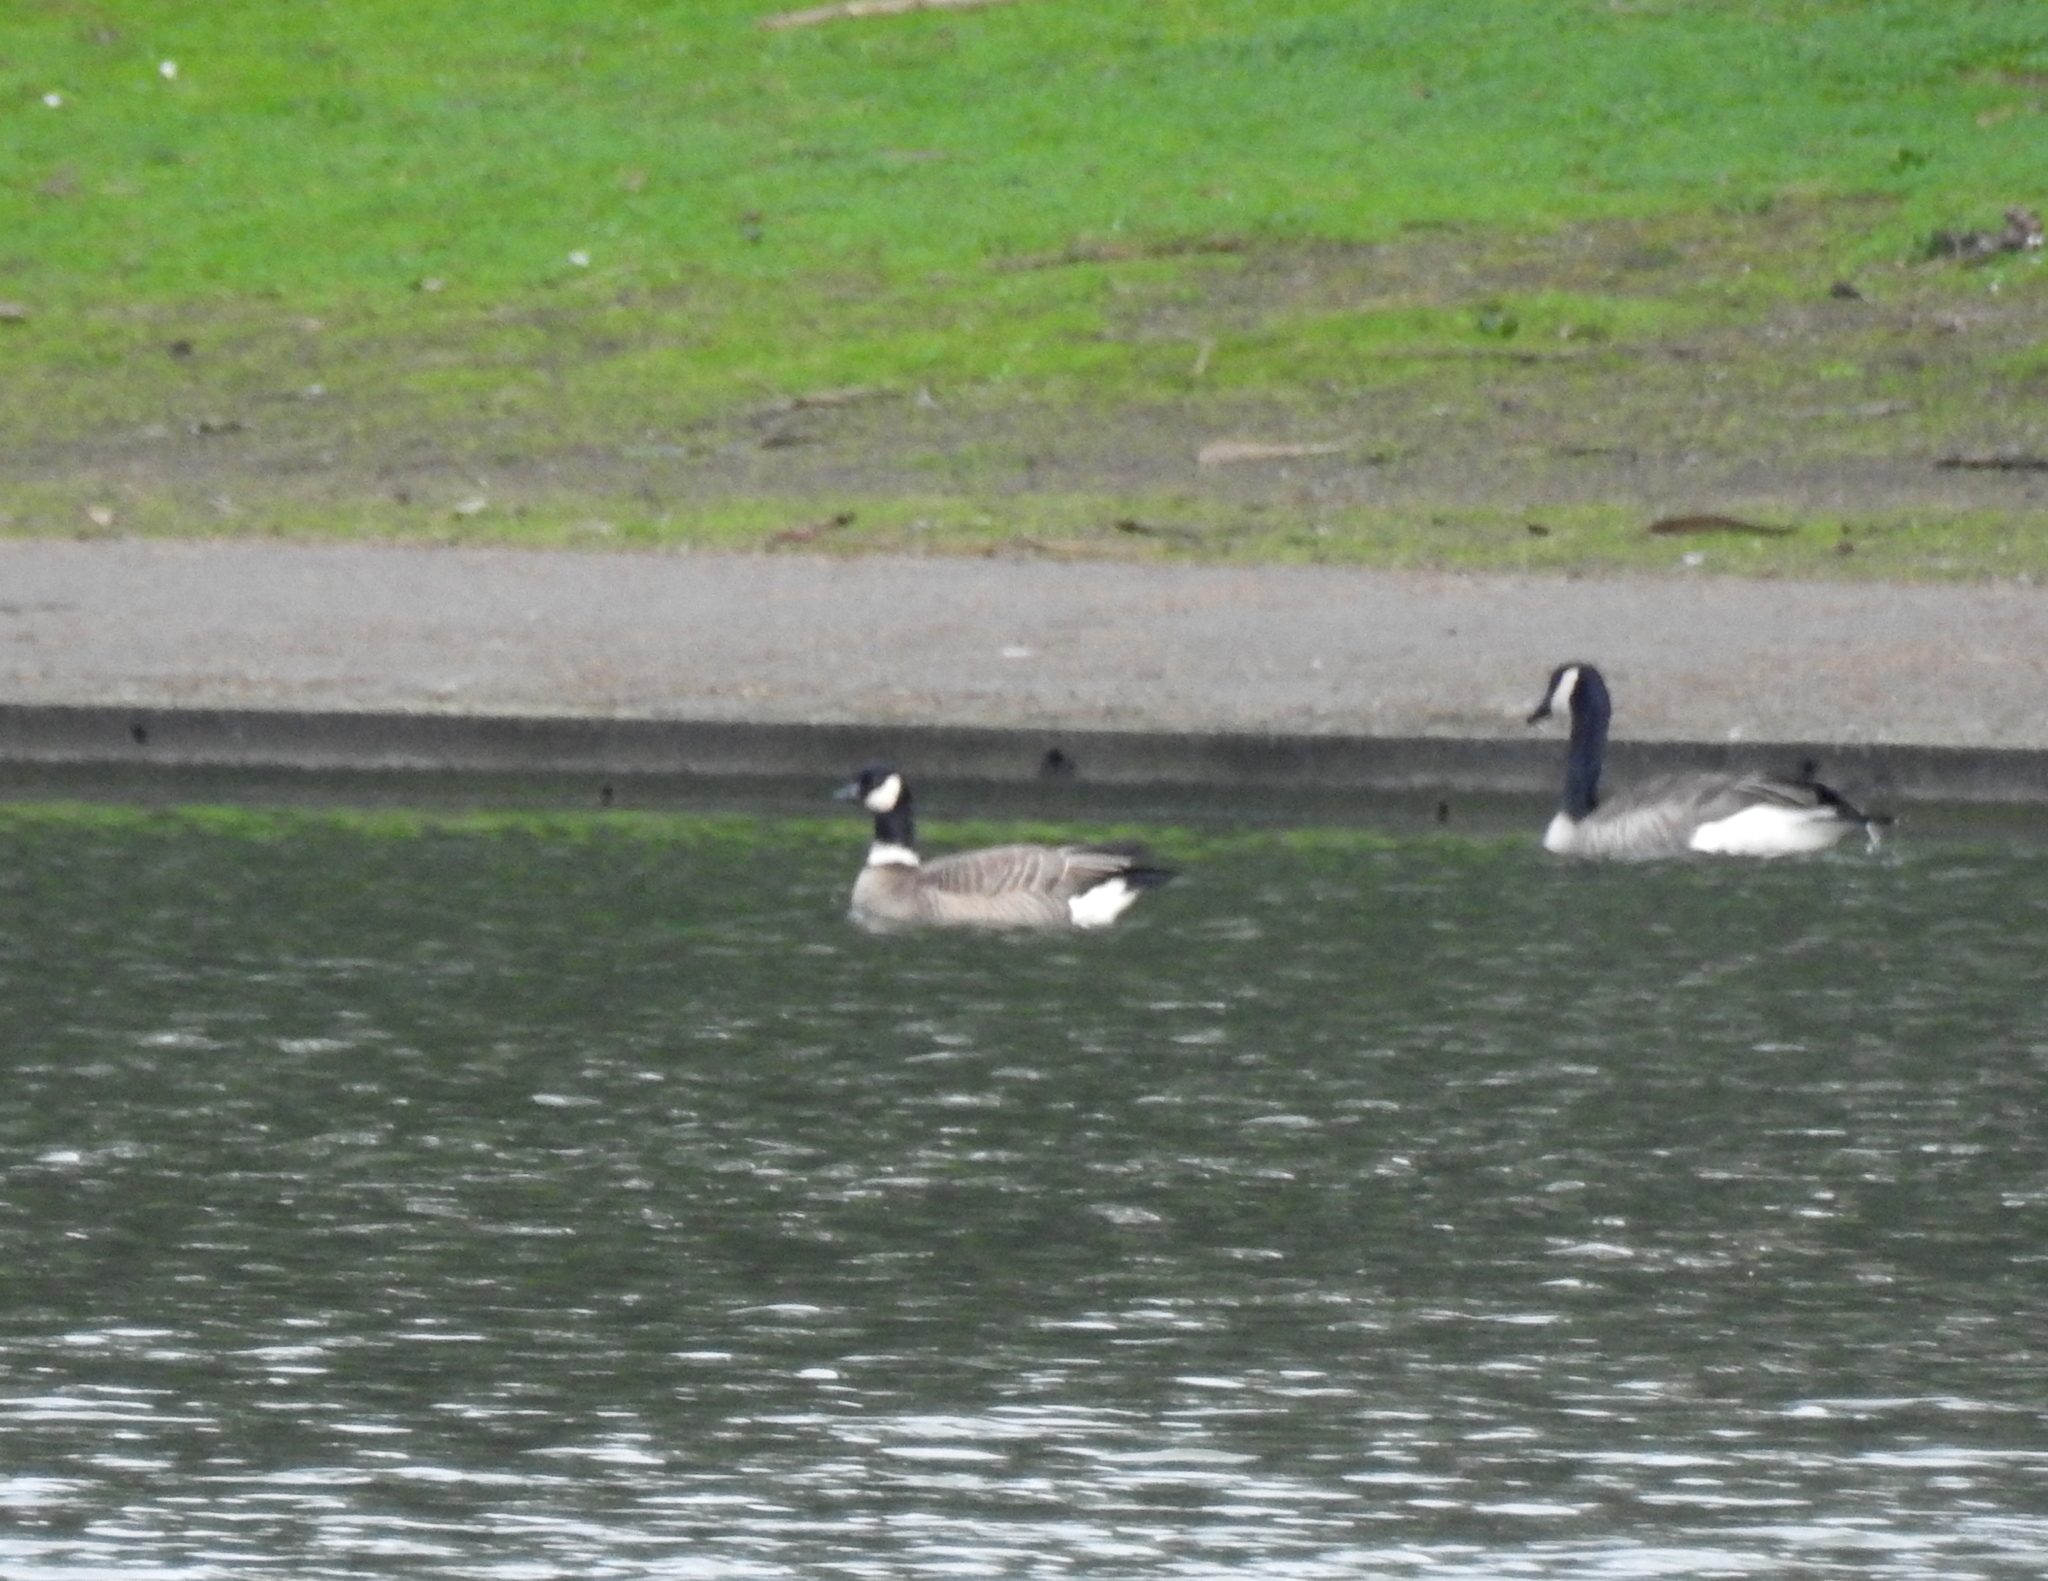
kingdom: Animalia
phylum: Chordata
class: Aves
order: Anseriformes
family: Anatidae
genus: Branta
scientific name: Branta hutchinsii
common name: Cackling goose
